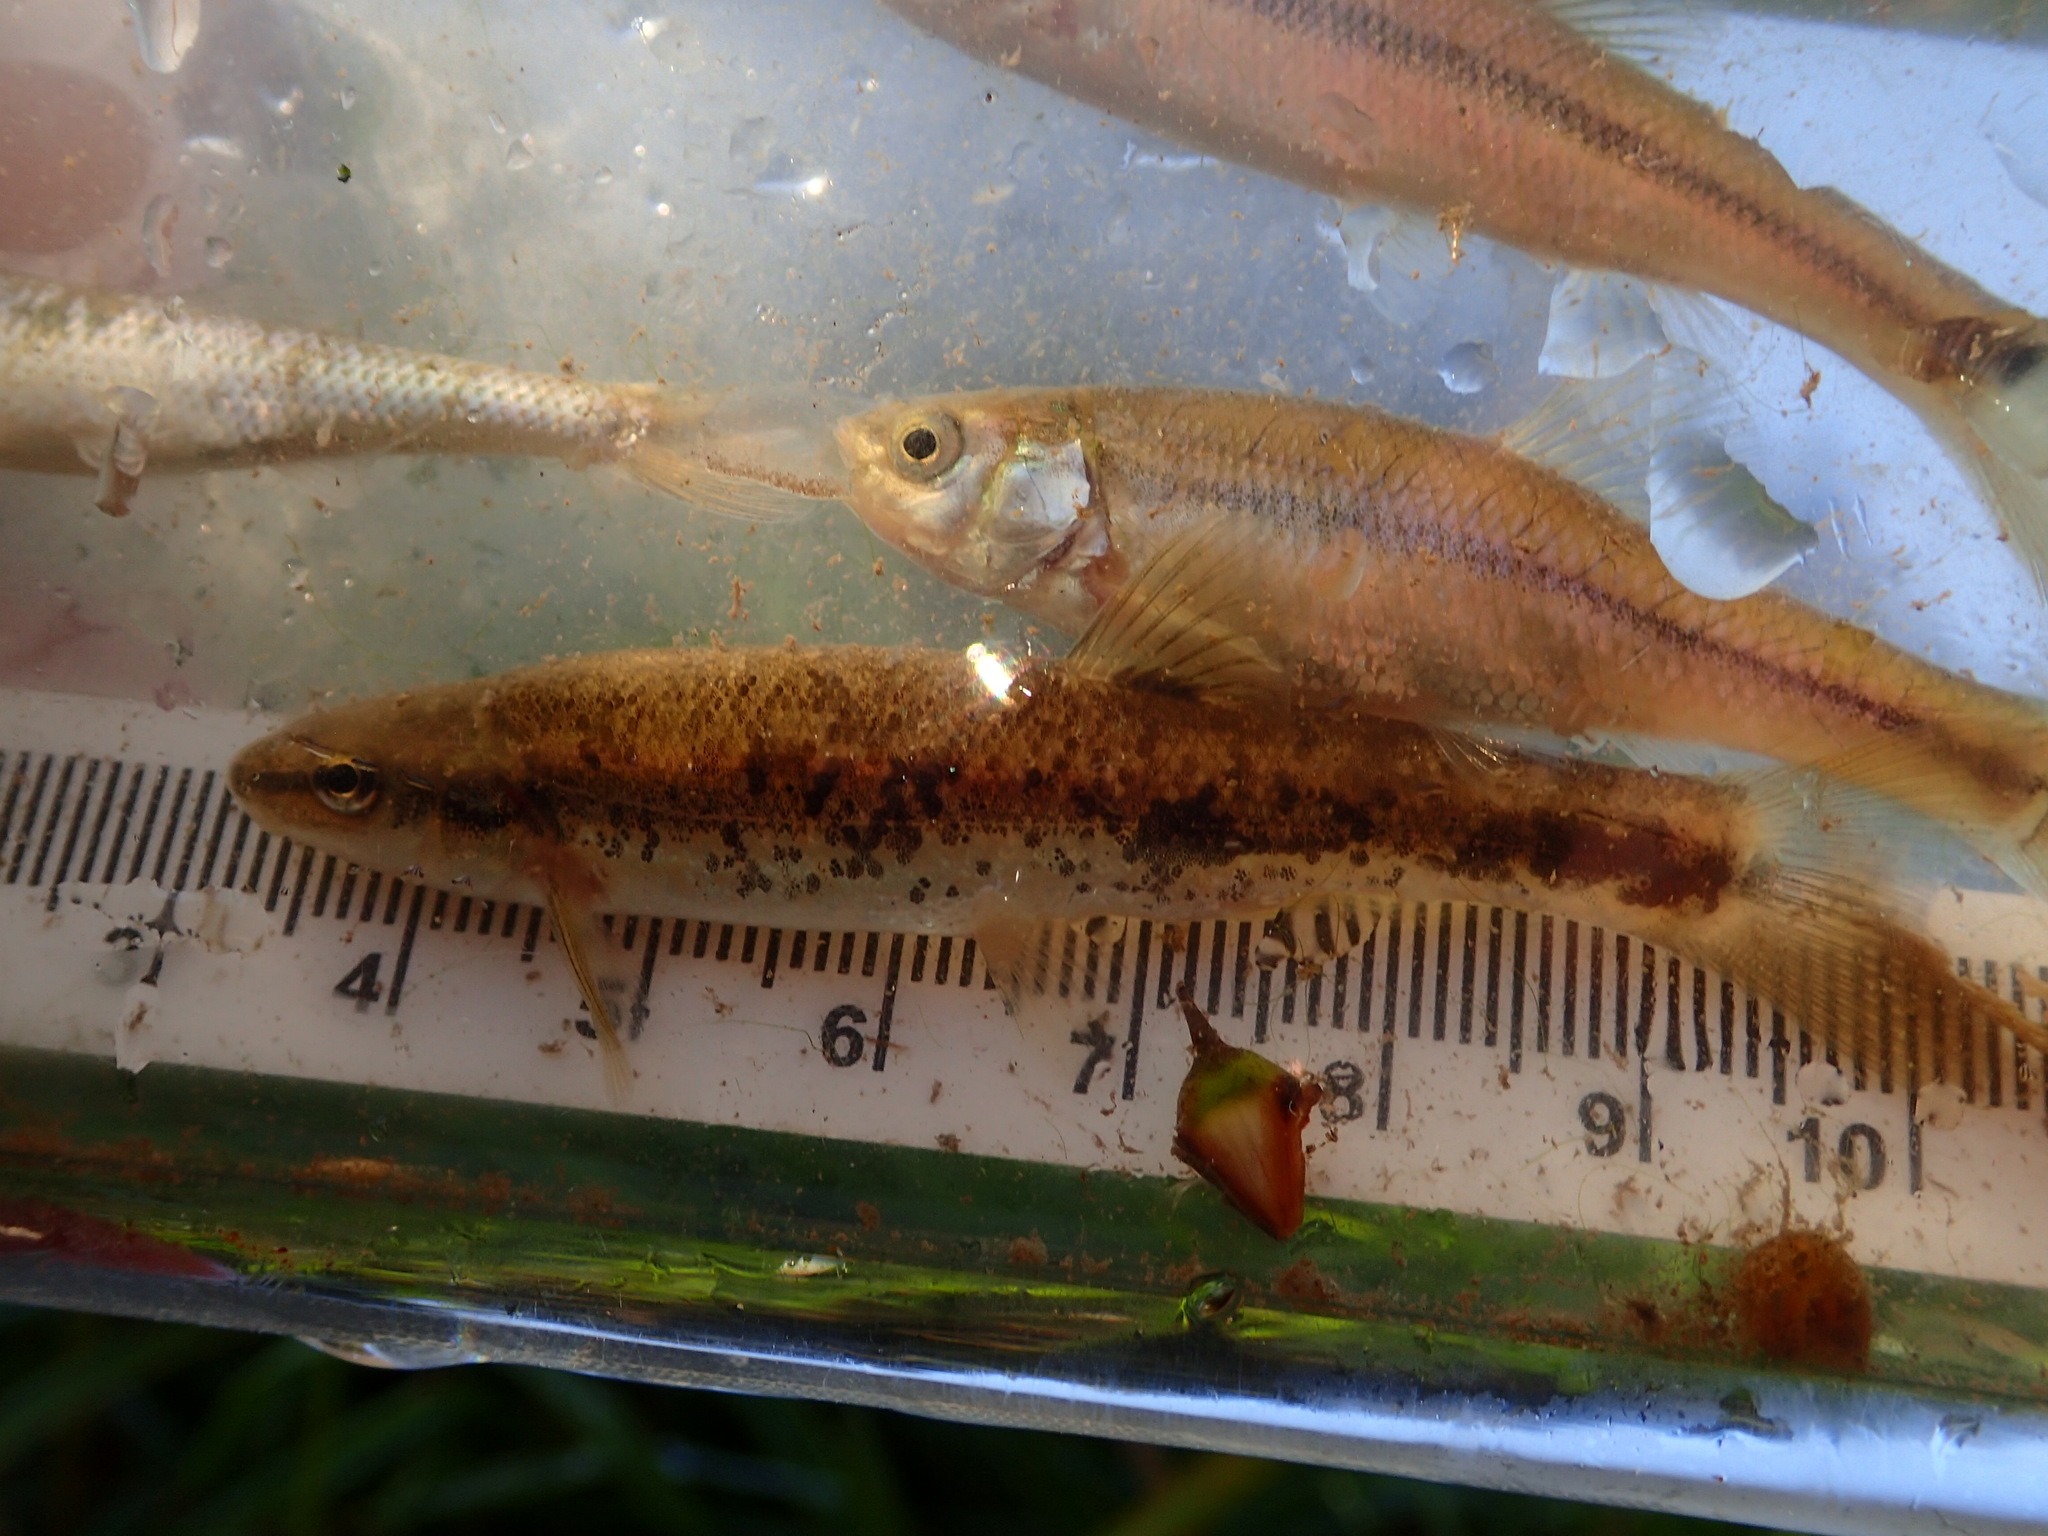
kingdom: Animalia
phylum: Chordata
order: Cypriniformes
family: Cyprinidae
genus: Rhinichthys
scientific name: Rhinichthys obtusus
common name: Western blacknose dace
